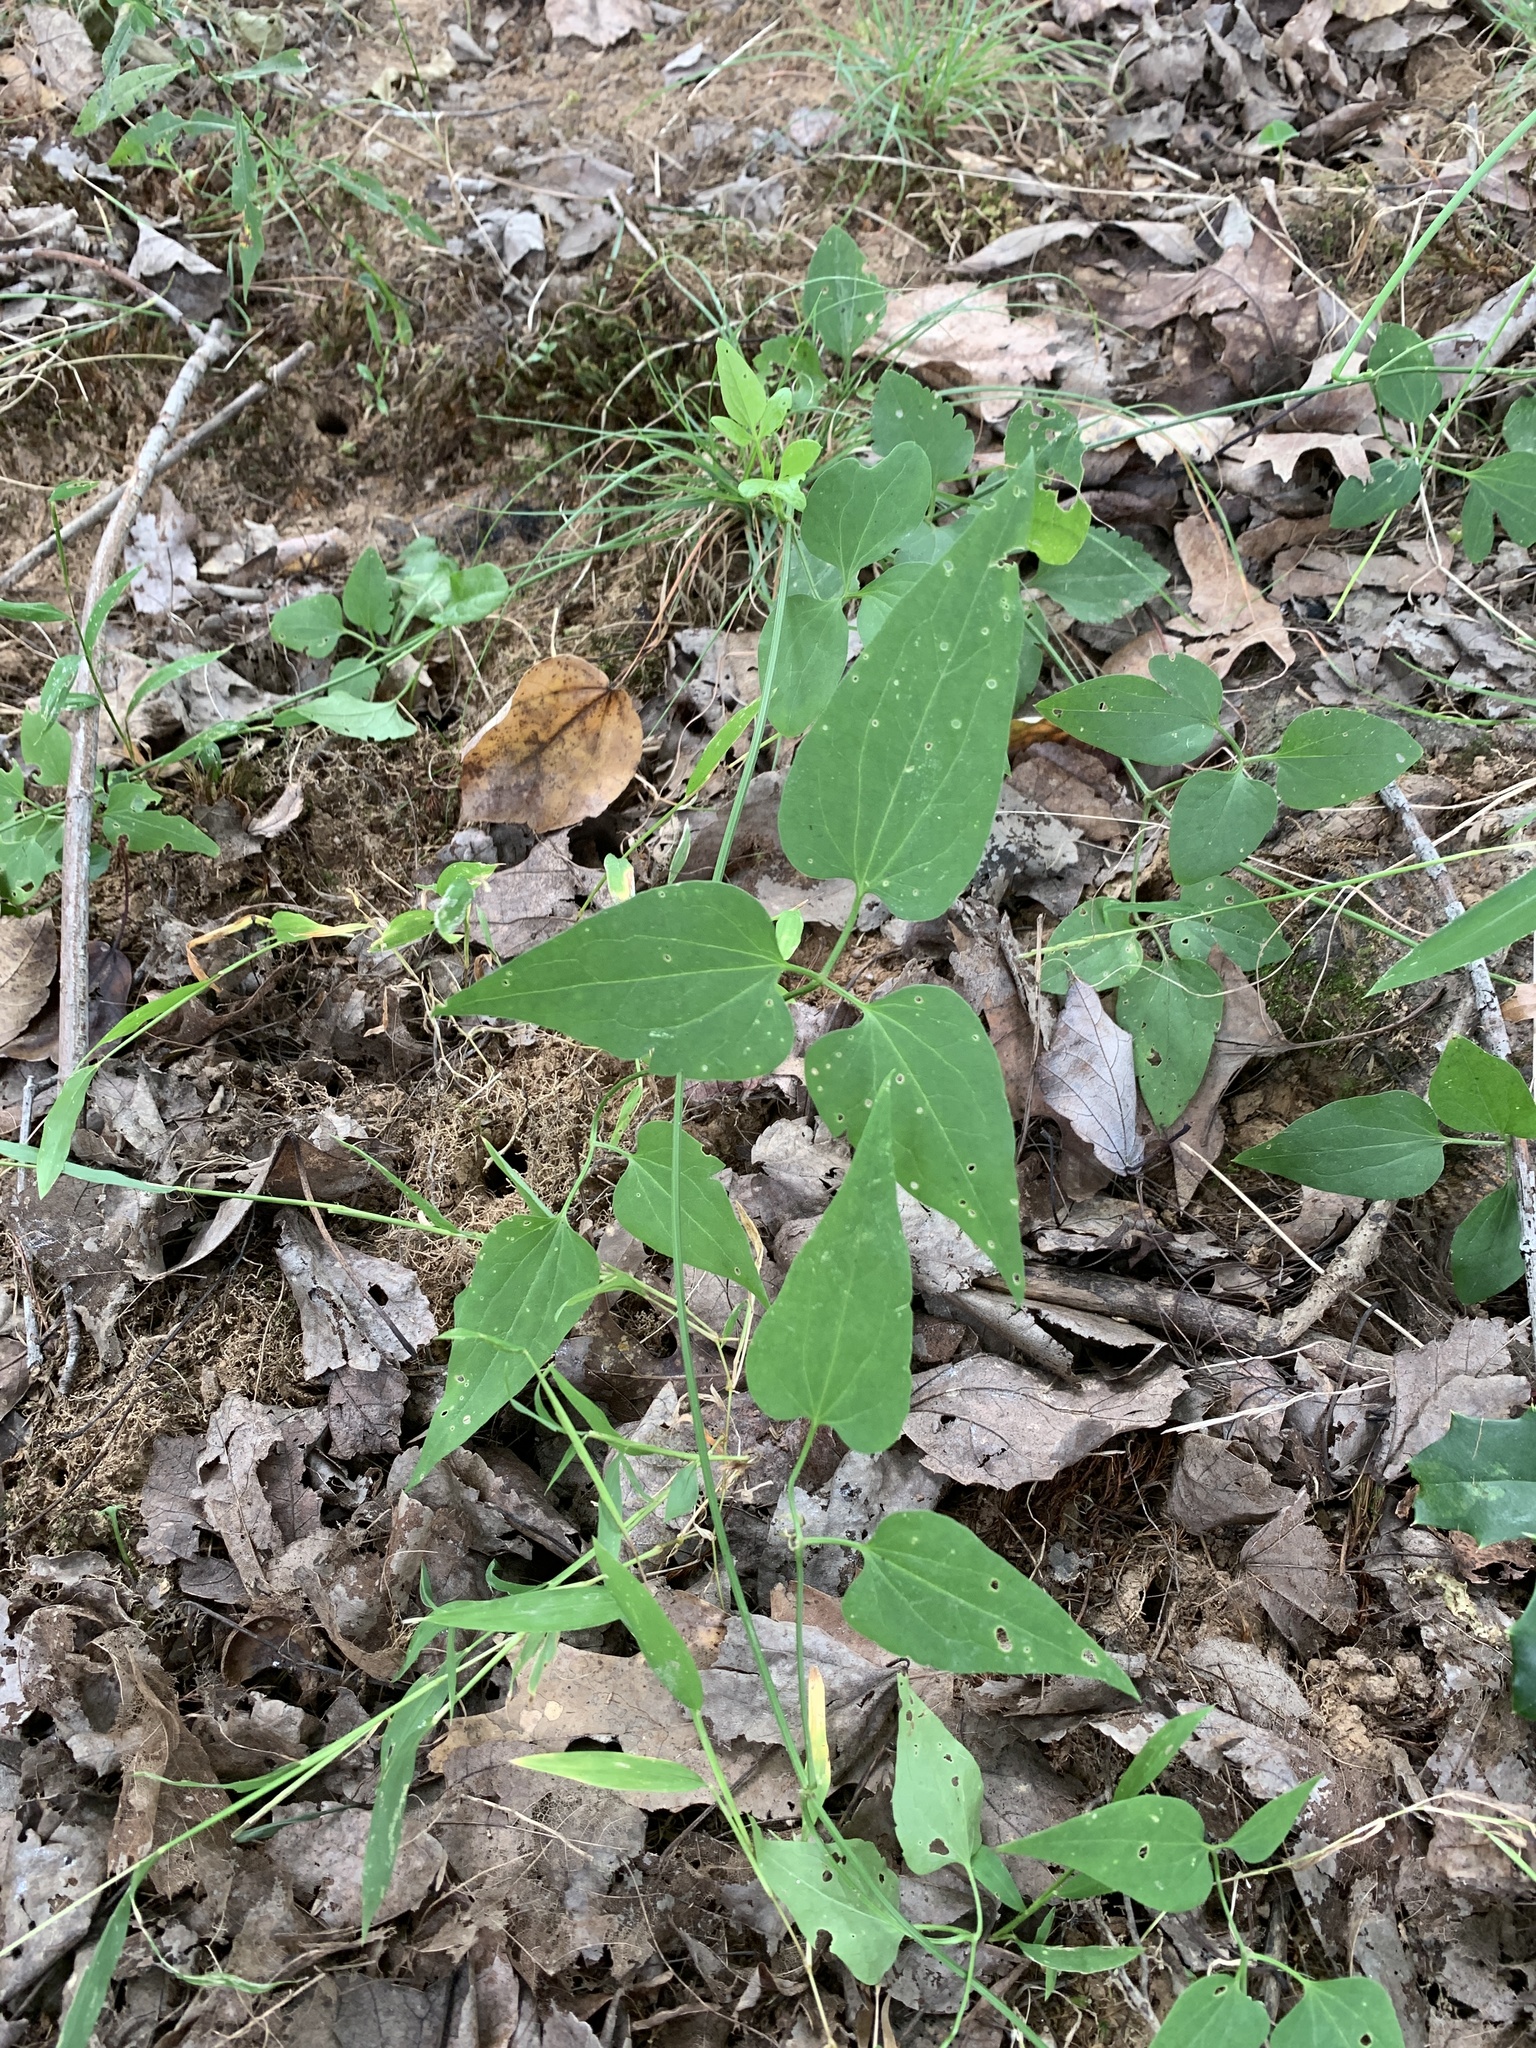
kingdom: Plantae
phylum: Tracheophyta
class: Magnoliopsida
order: Ranunculales
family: Ranunculaceae
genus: Clematis
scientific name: Clematis terniflora
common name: Sweet autumn clematis
